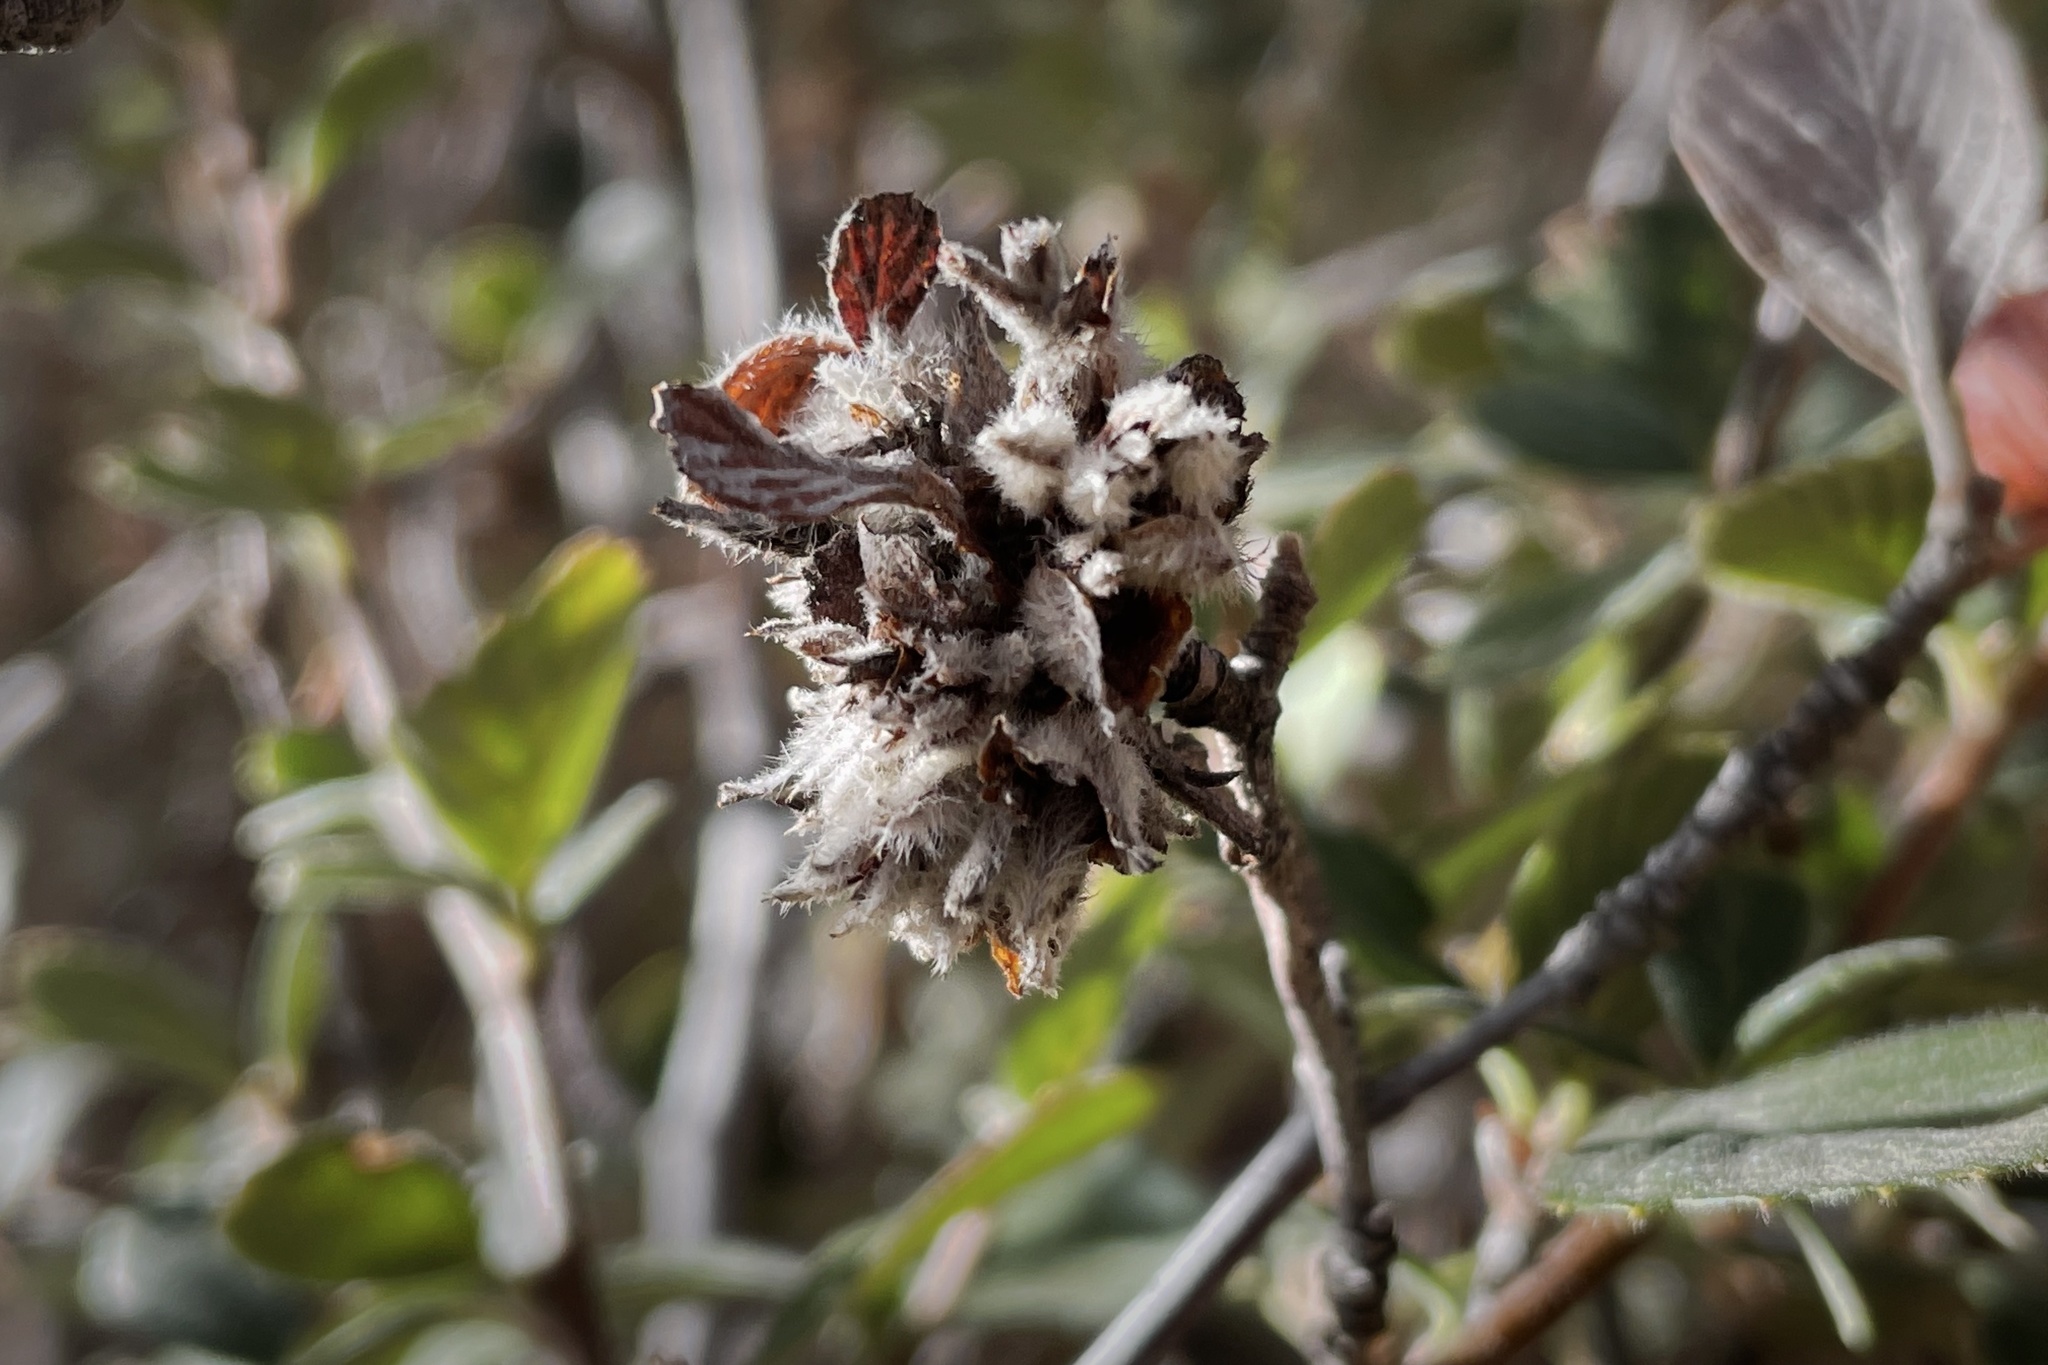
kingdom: Animalia
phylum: Arthropoda
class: Insecta
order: Diptera
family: Cecidomyiidae
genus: Dasineura
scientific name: Dasineura cercocarpi
